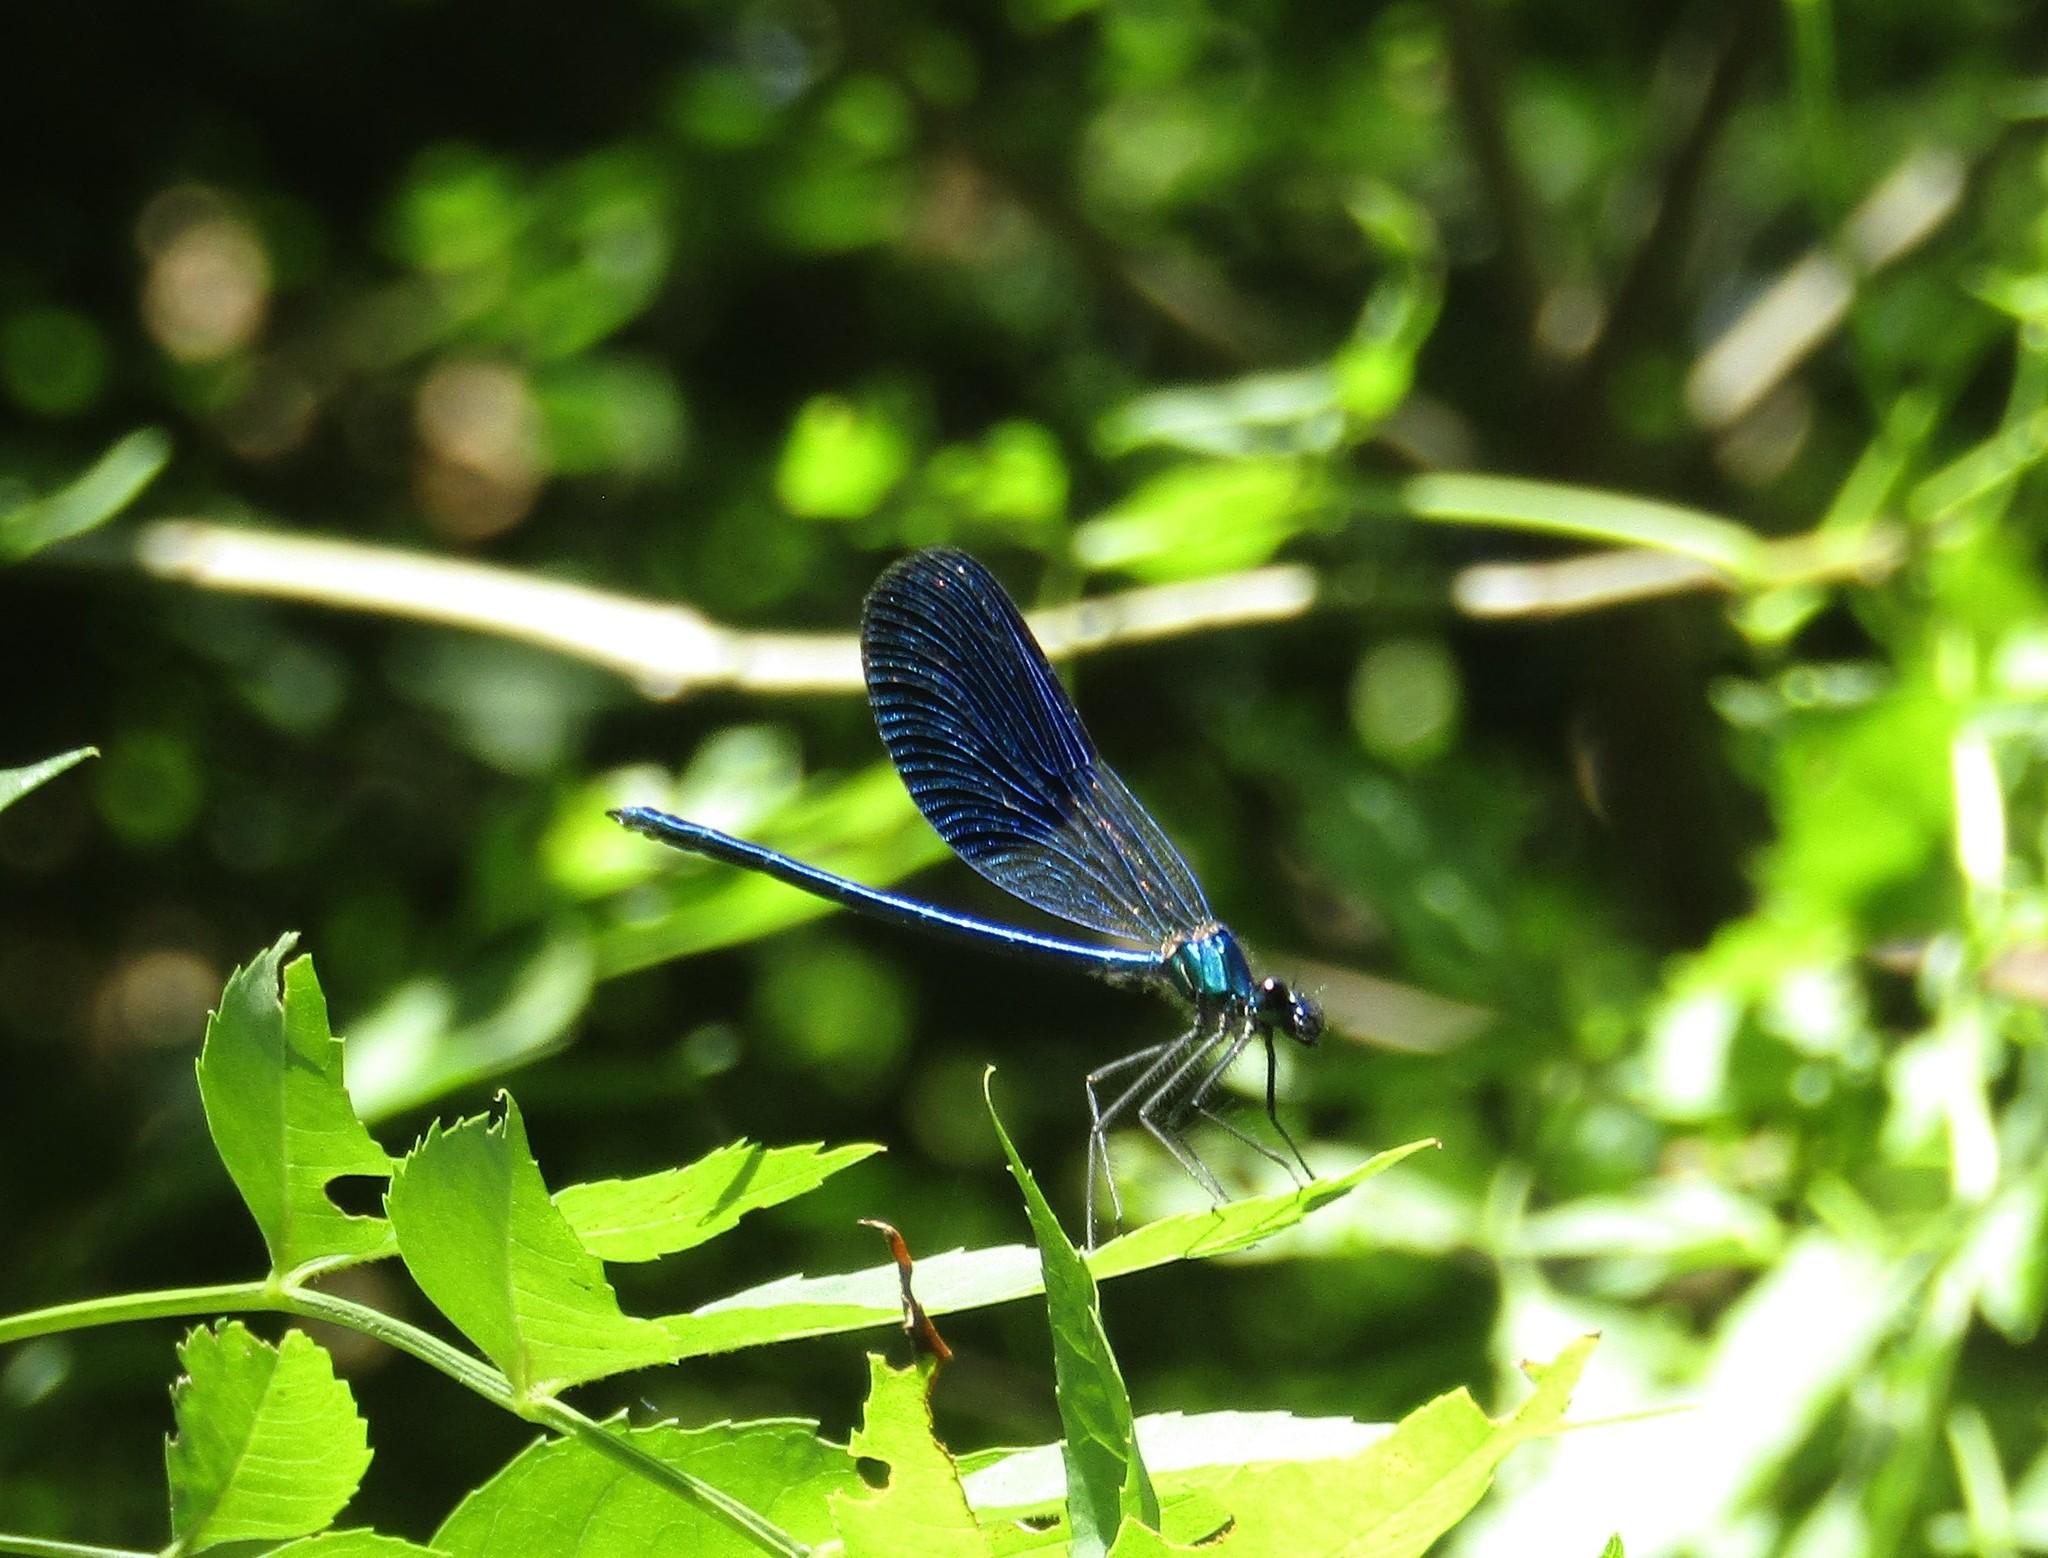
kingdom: Animalia
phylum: Arthropoda
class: Insecta
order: Odonata
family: Calopterygidae
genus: Calopteryx
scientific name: Calopteryx splendens
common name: Banded demoiselle
